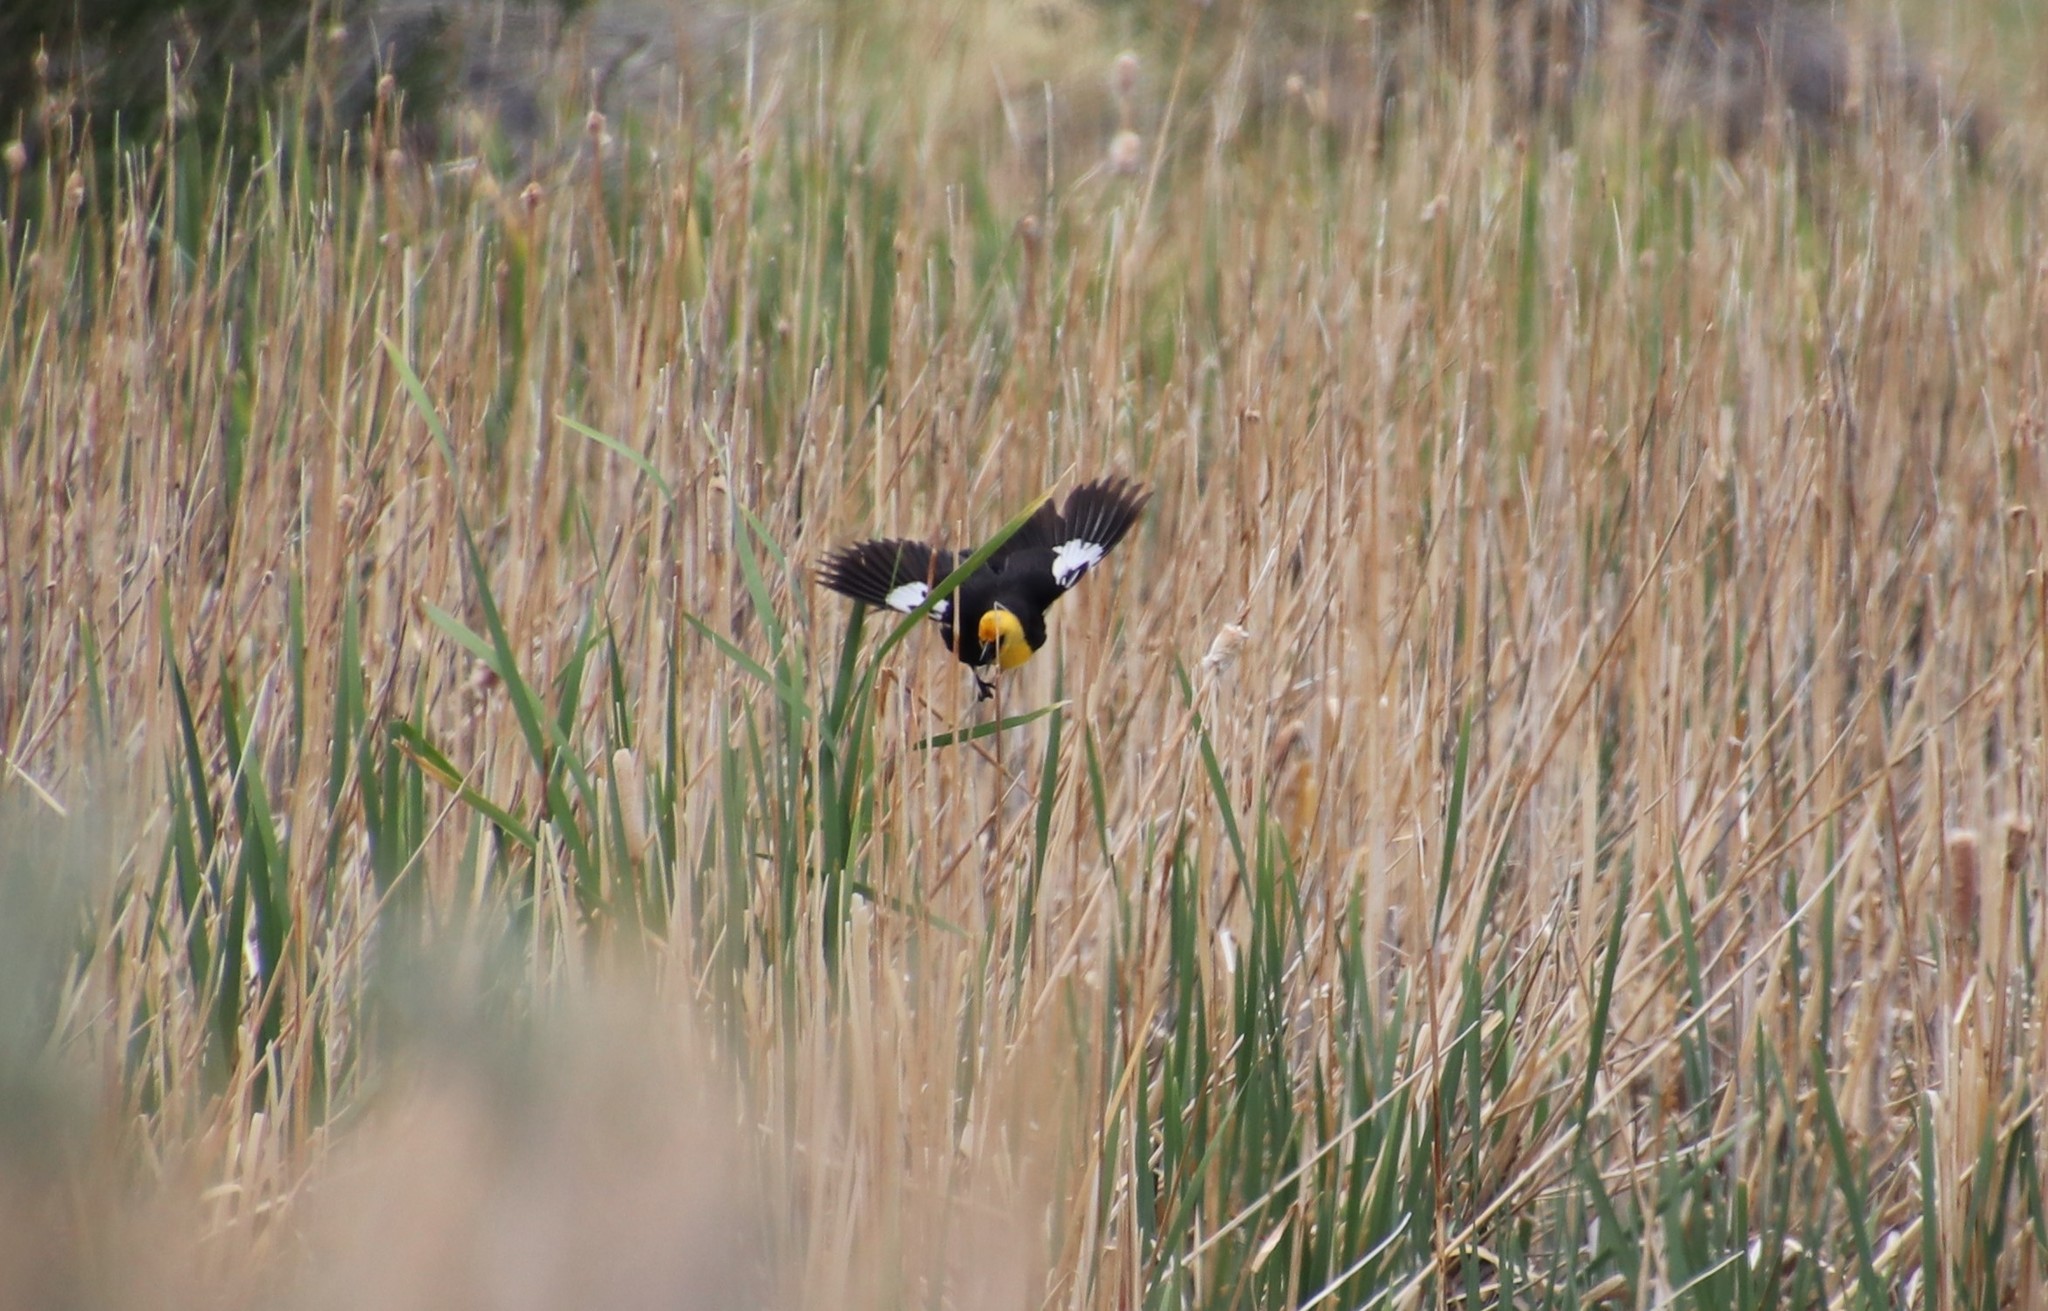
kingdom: Animalia
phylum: Chordata
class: Aves
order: Passeriformes
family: Icteridae
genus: Xanthocephalus
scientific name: Xanthocephalus xanthocephalus
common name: Yellow-headed blackbird
